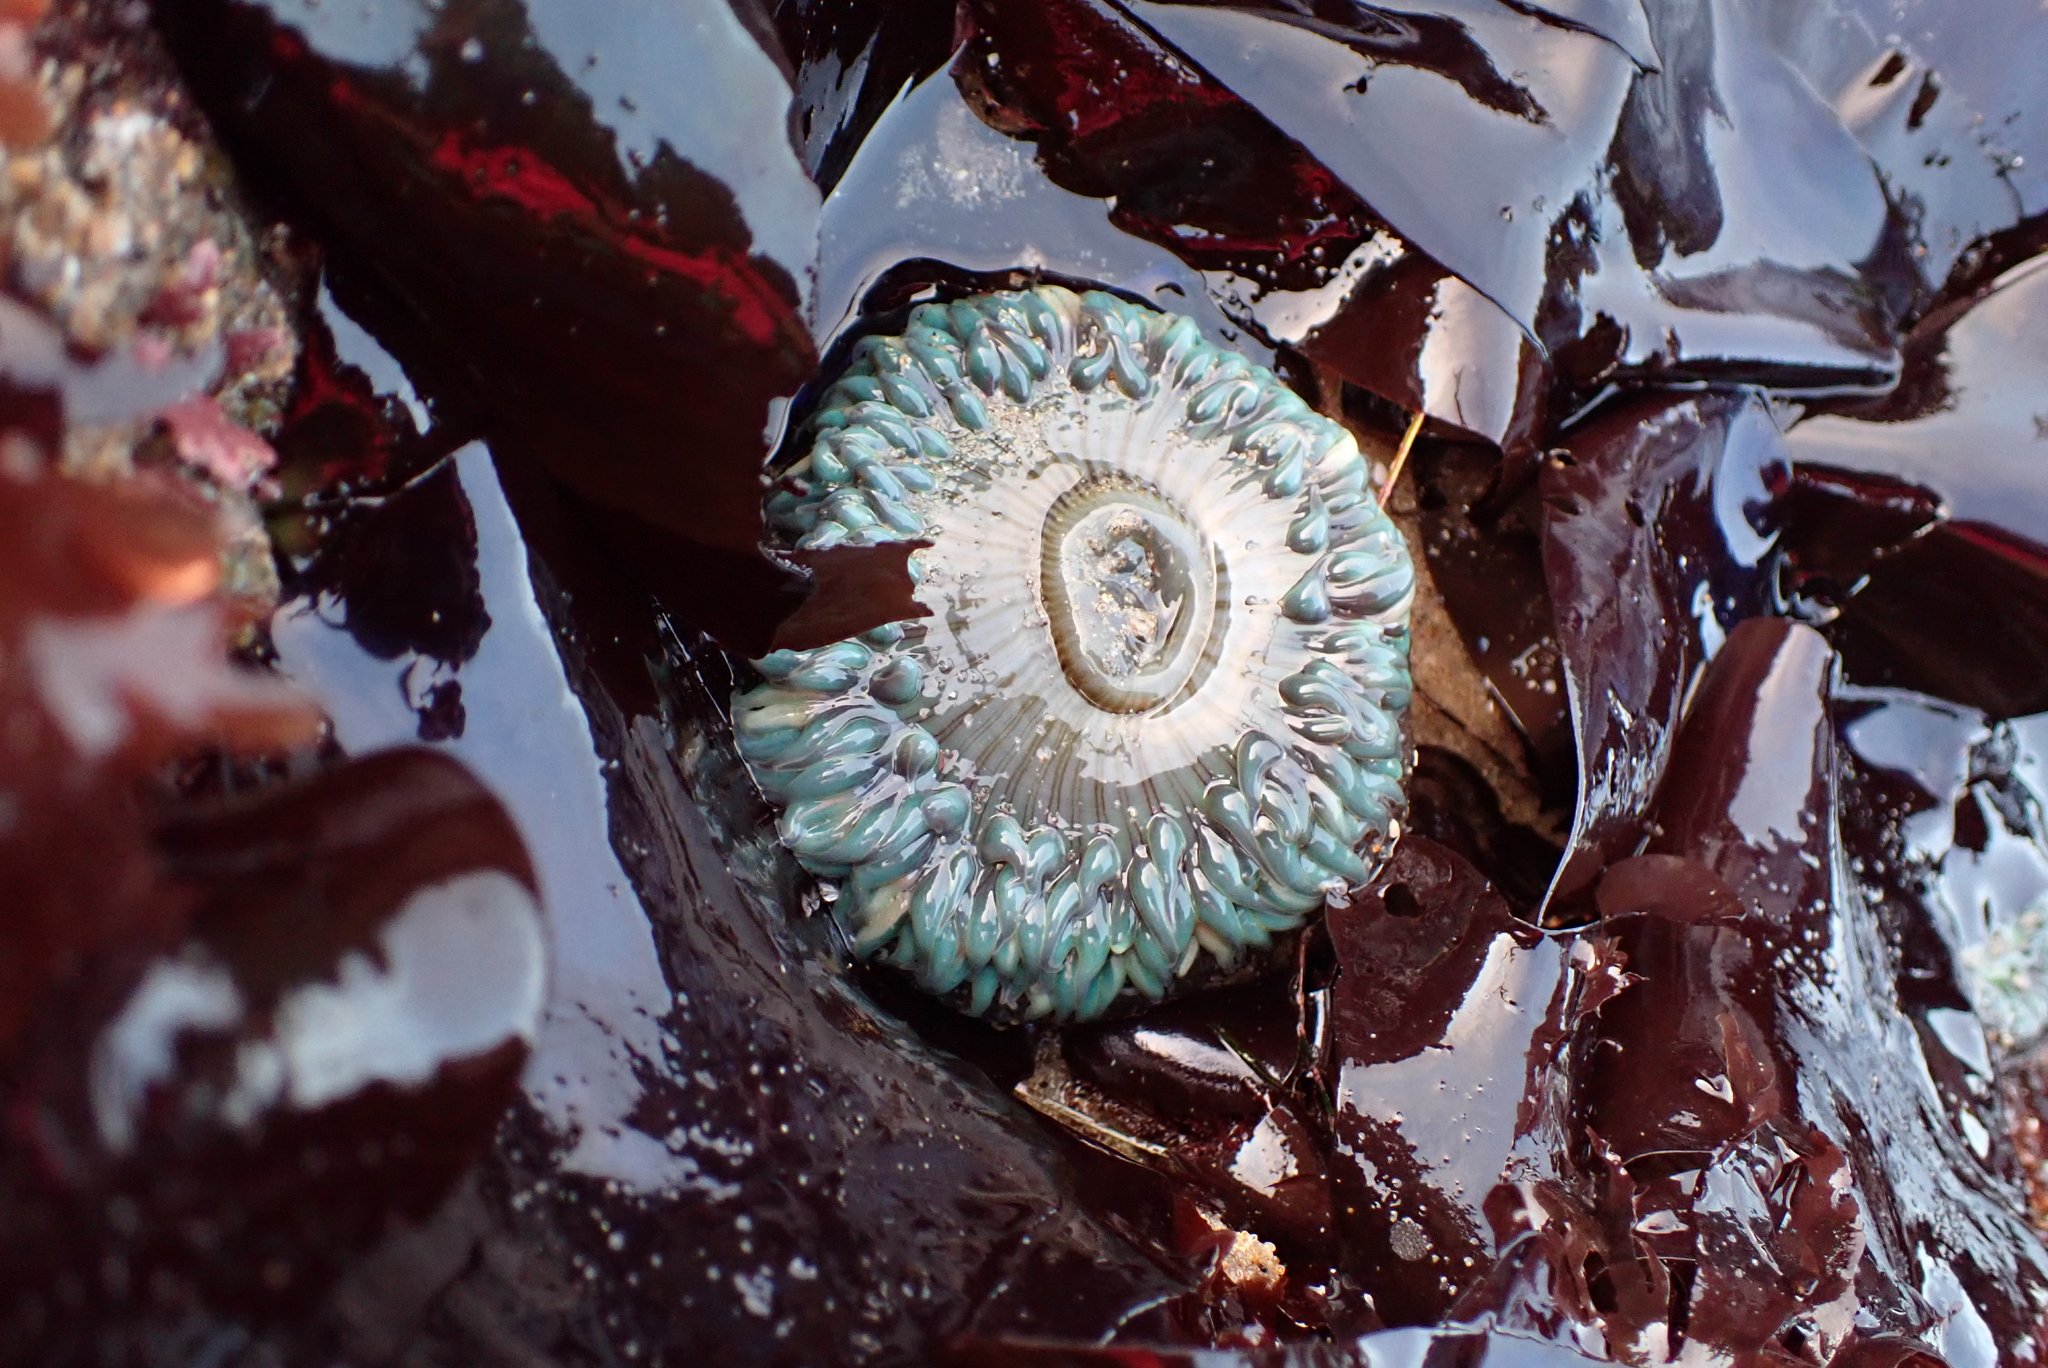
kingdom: Animalia
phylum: Cnidaria
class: Anthozoa
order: Actiniaria
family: Actiniidae
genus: Anthopleura
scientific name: Anthopleura sola
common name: Sun anemone
